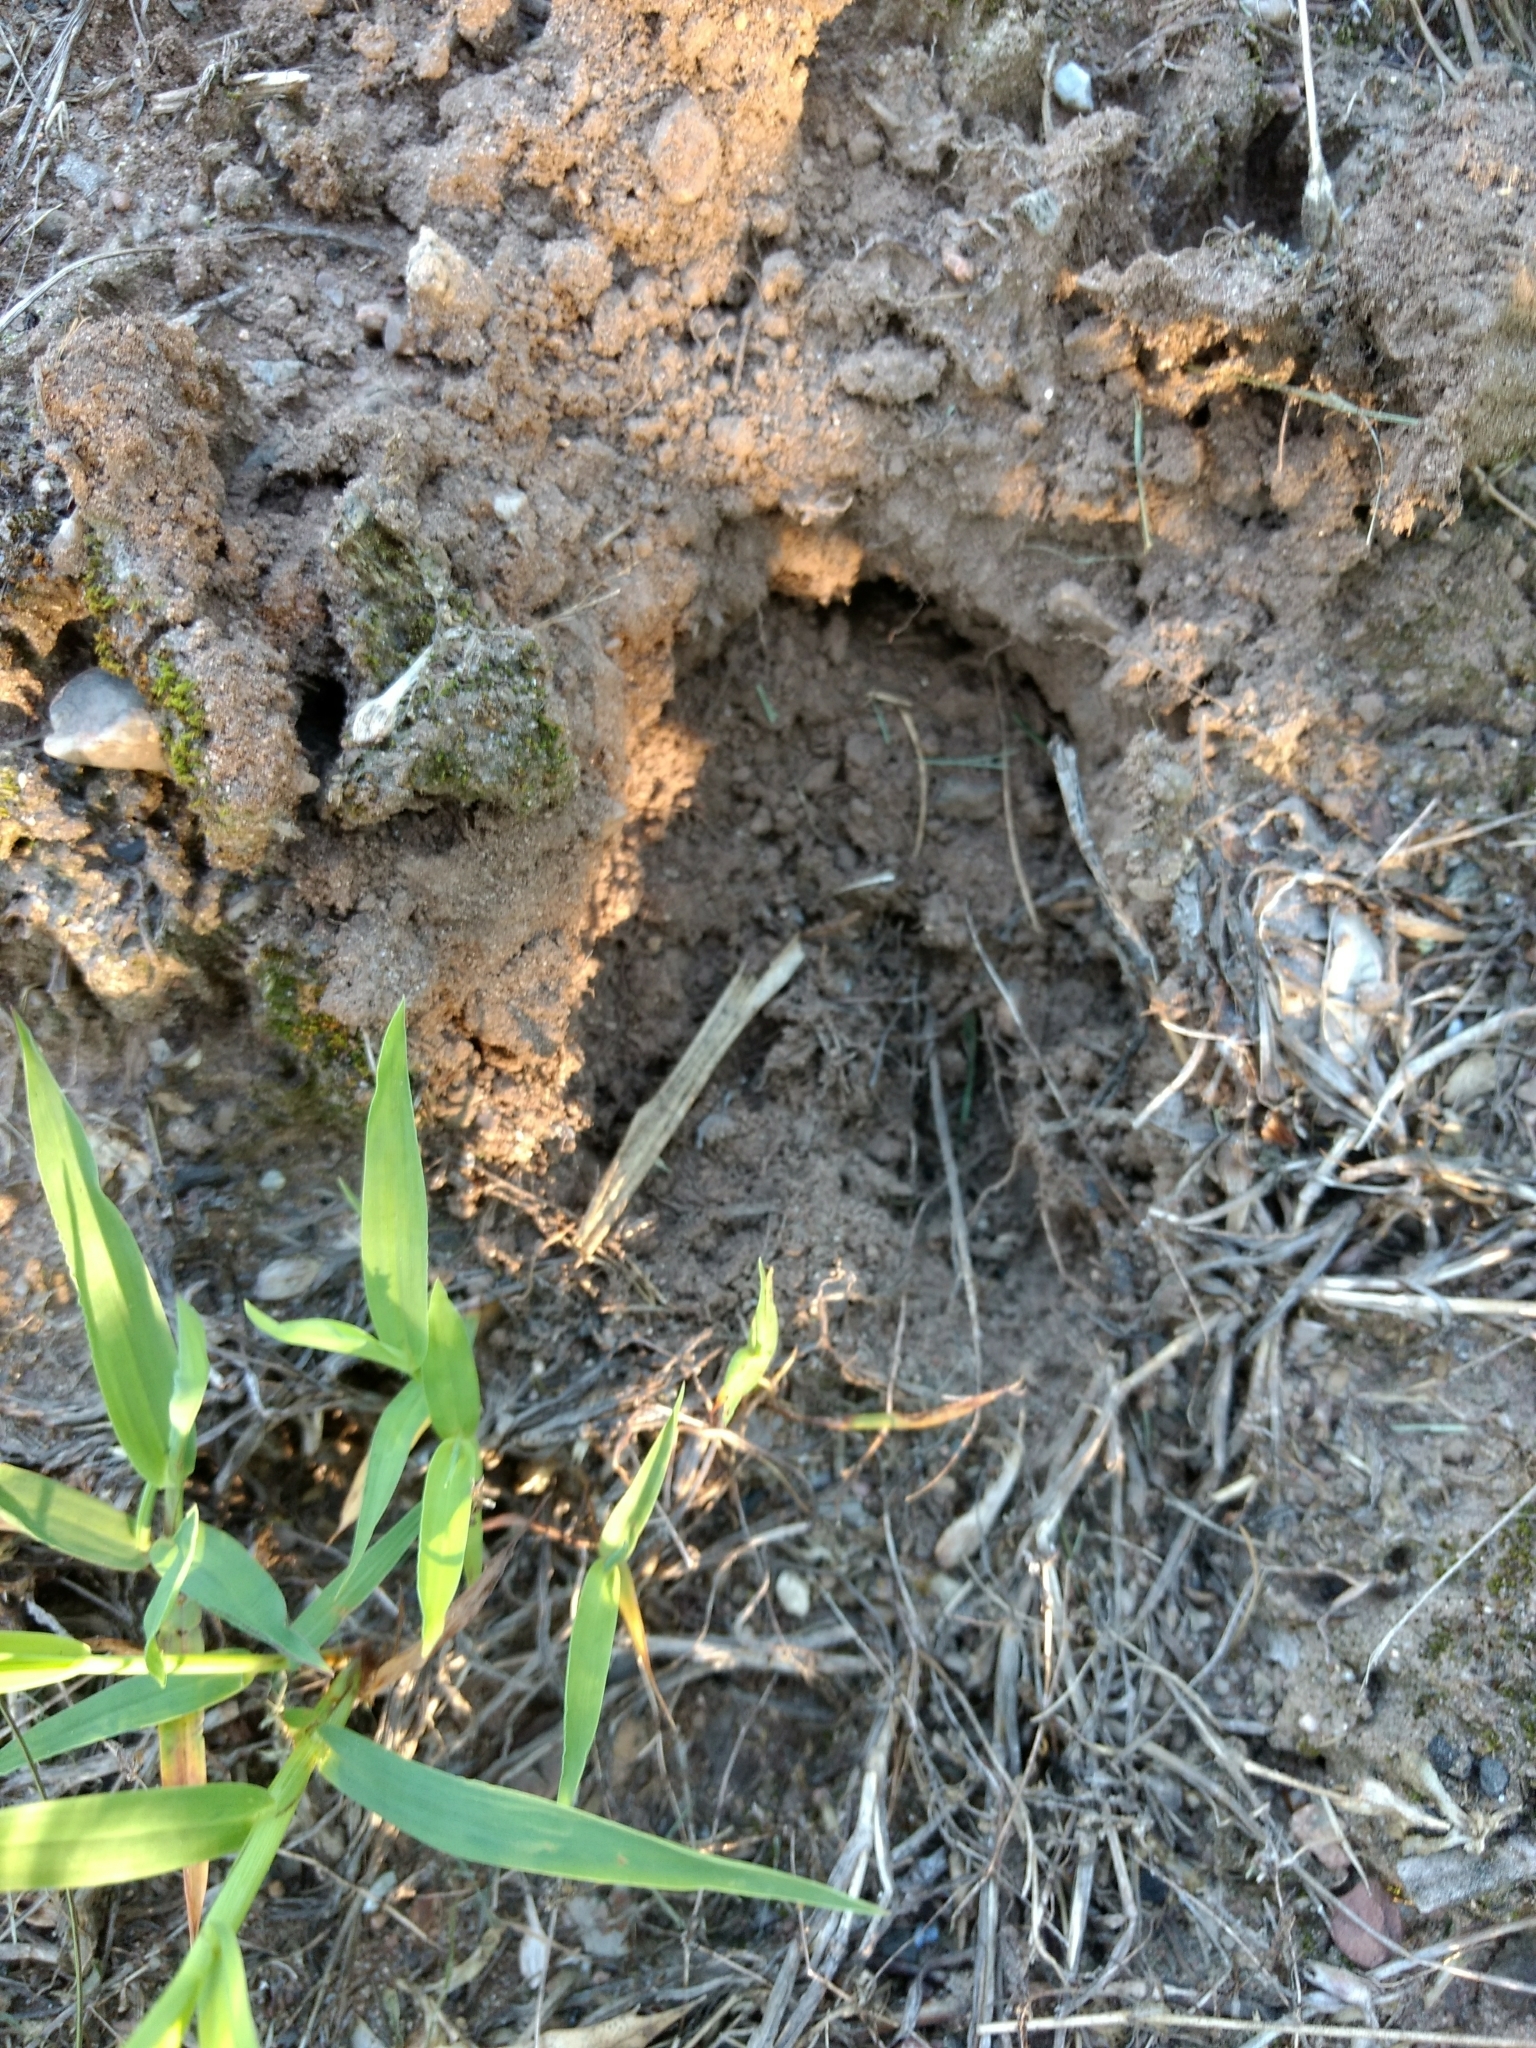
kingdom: Animalia
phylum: Chordata
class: Mammalia
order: Artiodactyla
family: Cervidae
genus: Odocoileus
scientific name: Odocoileus virginianus
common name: White-tailed deer
